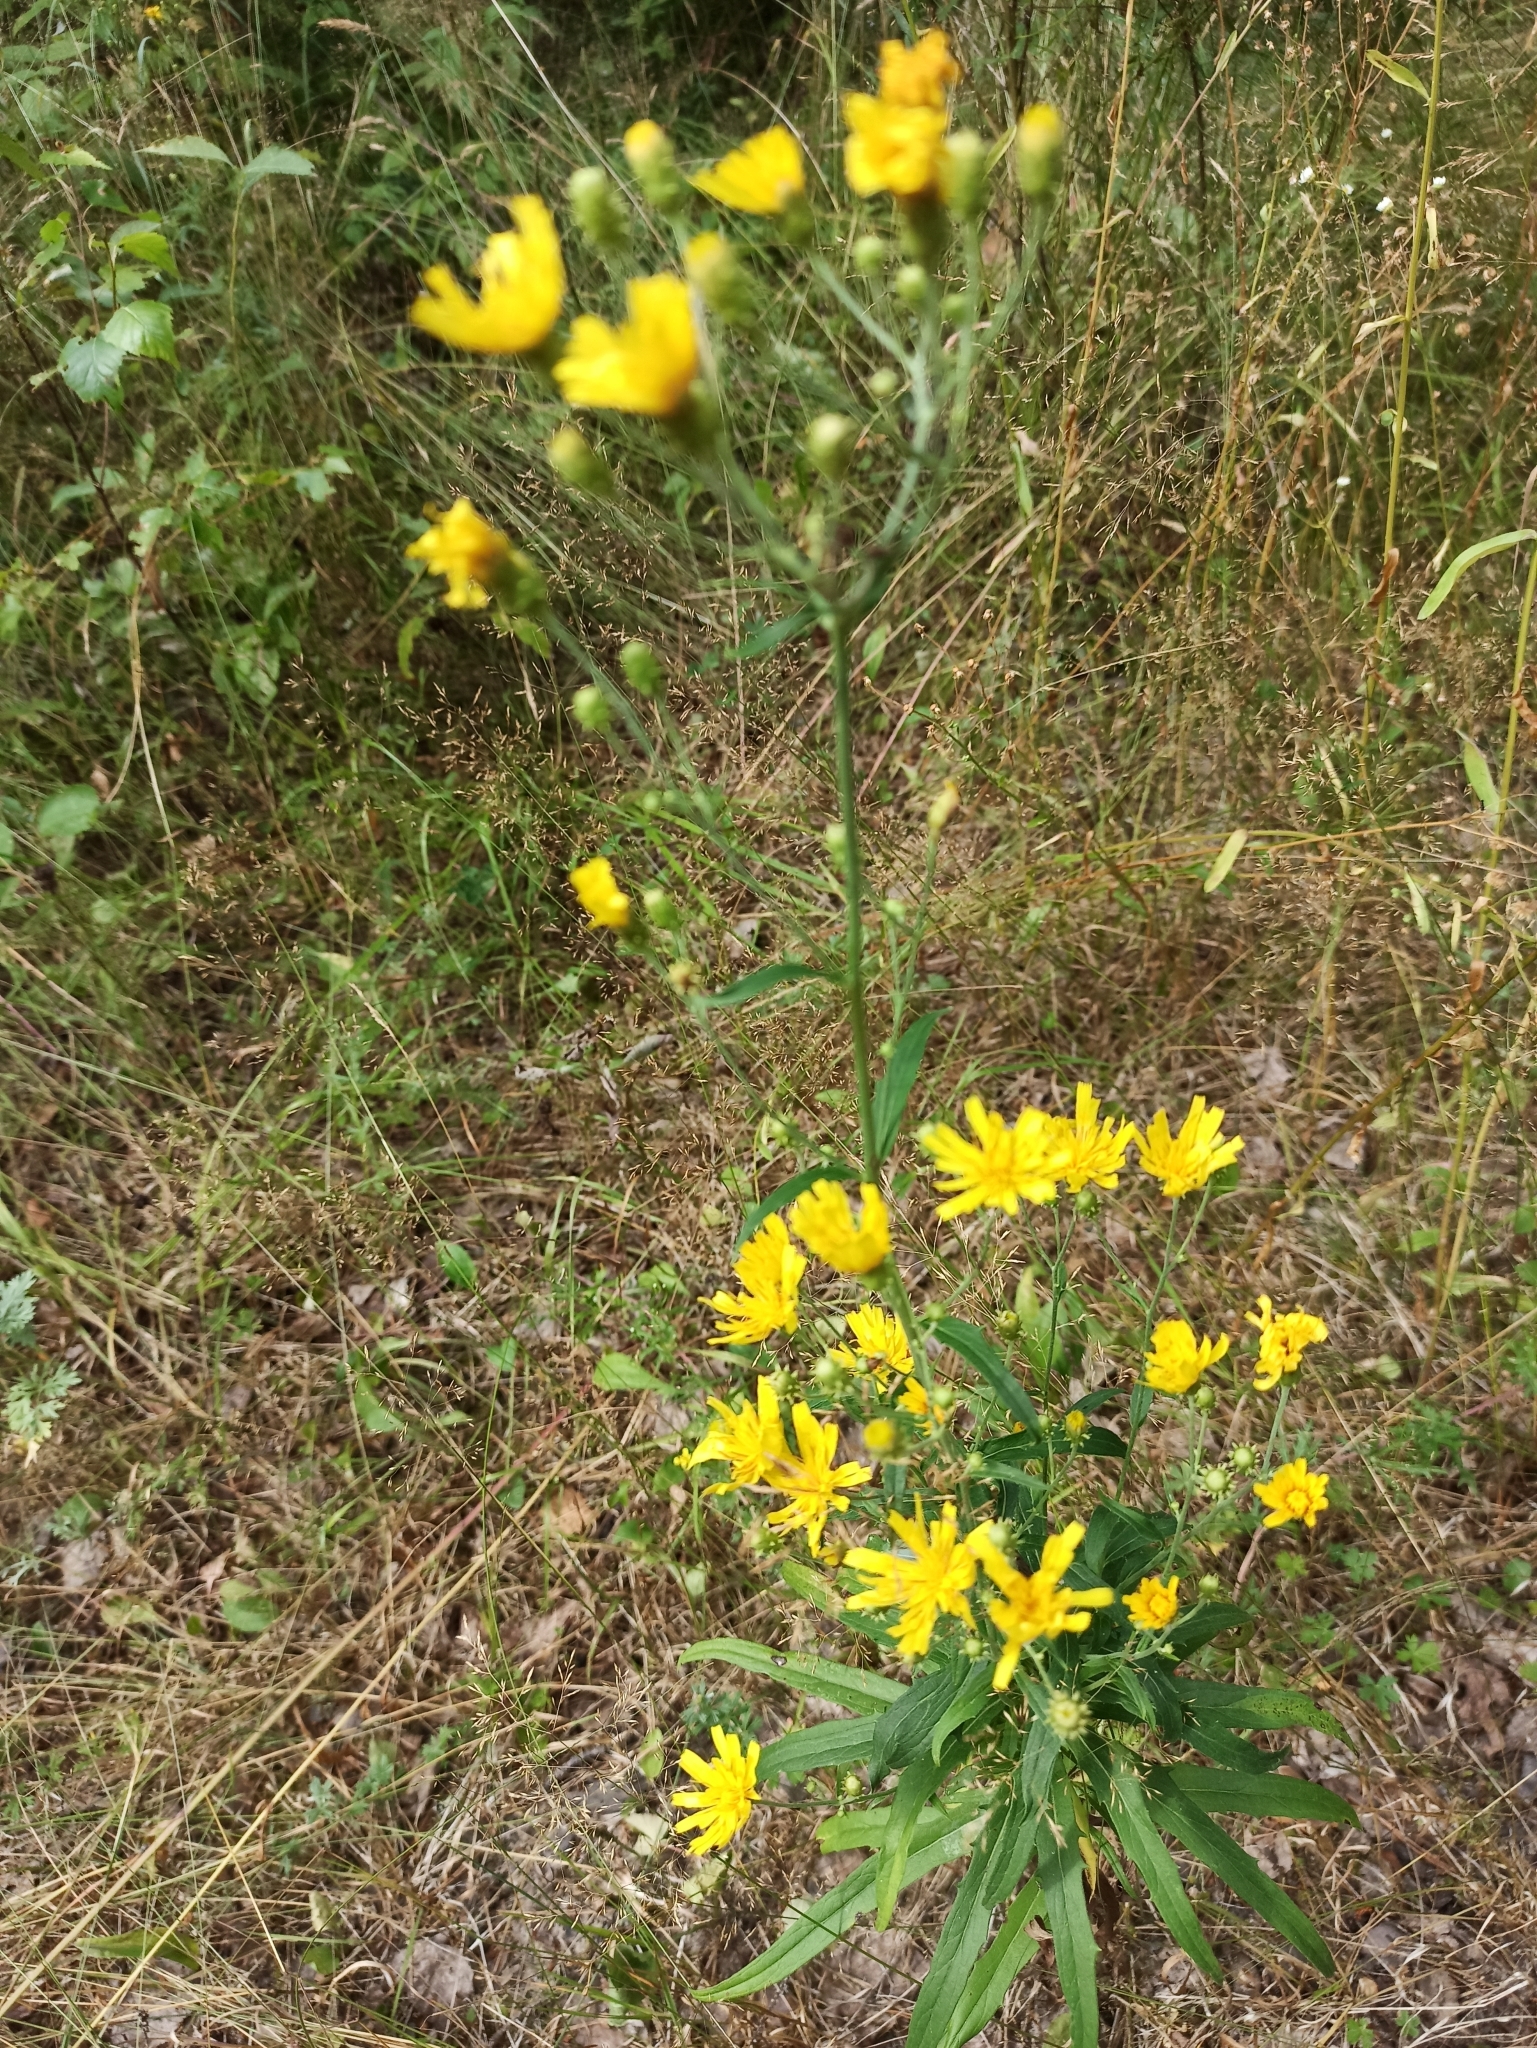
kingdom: Plantae
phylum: Tracheophyta
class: Magnoliopsida
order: Asterales
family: Asteraceae
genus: Hieracium
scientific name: Hieracium umbellatum
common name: Northern hawkweed
